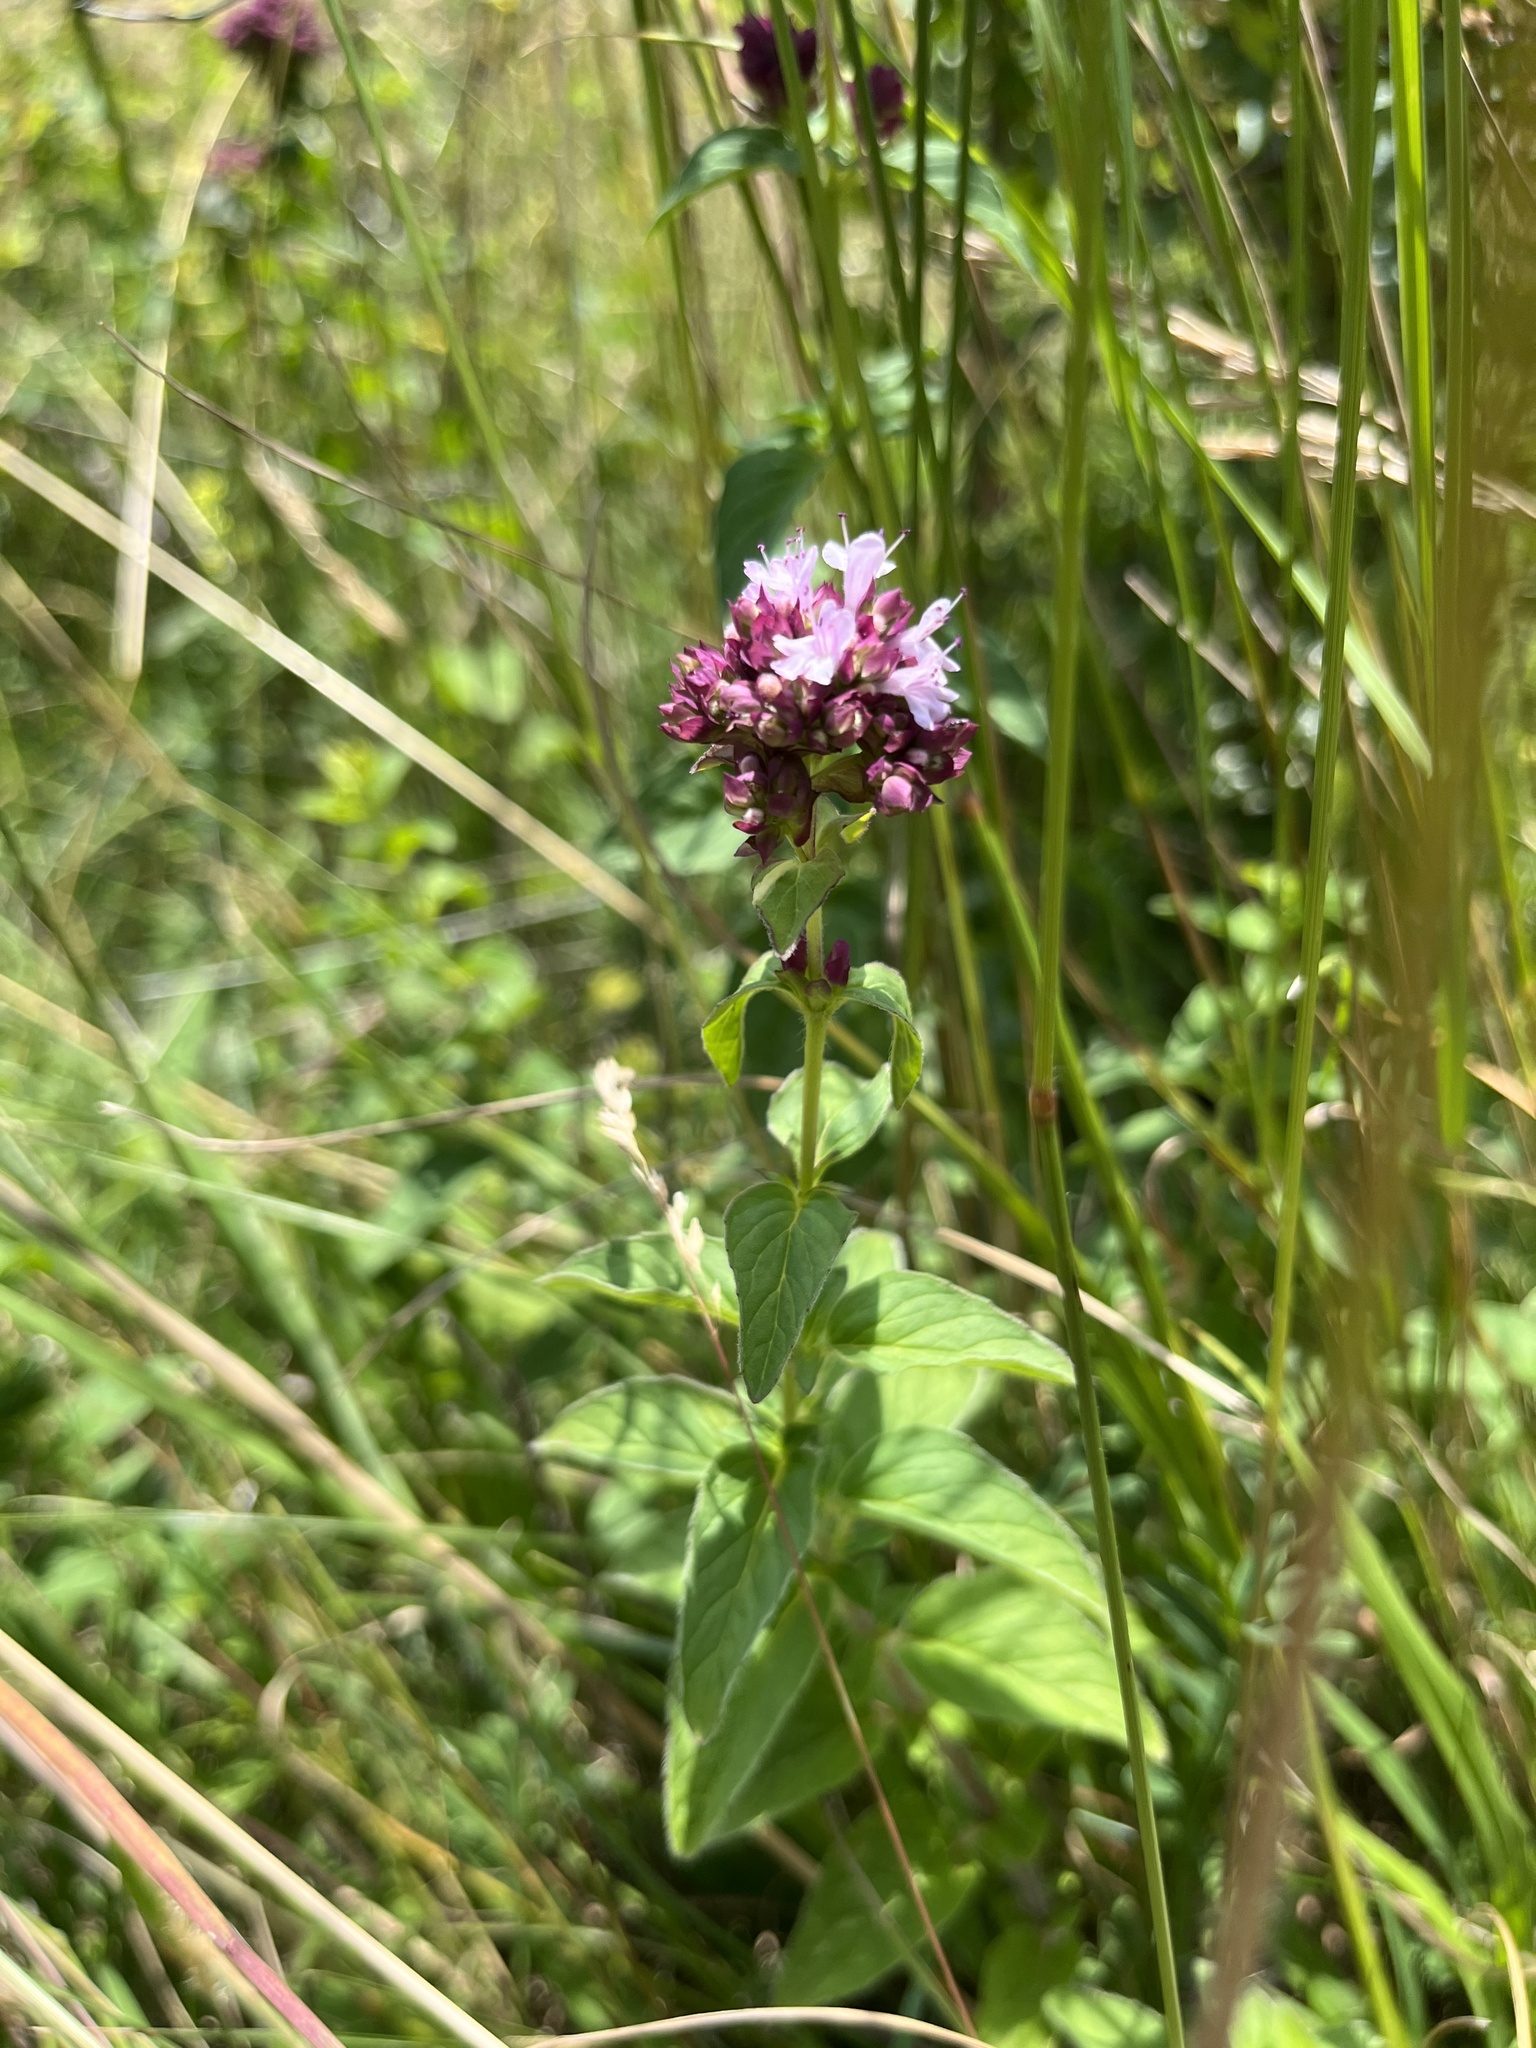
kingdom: Plantae
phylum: Tracheophyta
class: Magnoliopsida
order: Lamiales
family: Lamiaceae
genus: Origanum
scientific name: Origanum vulgare
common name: Wild marjoram
